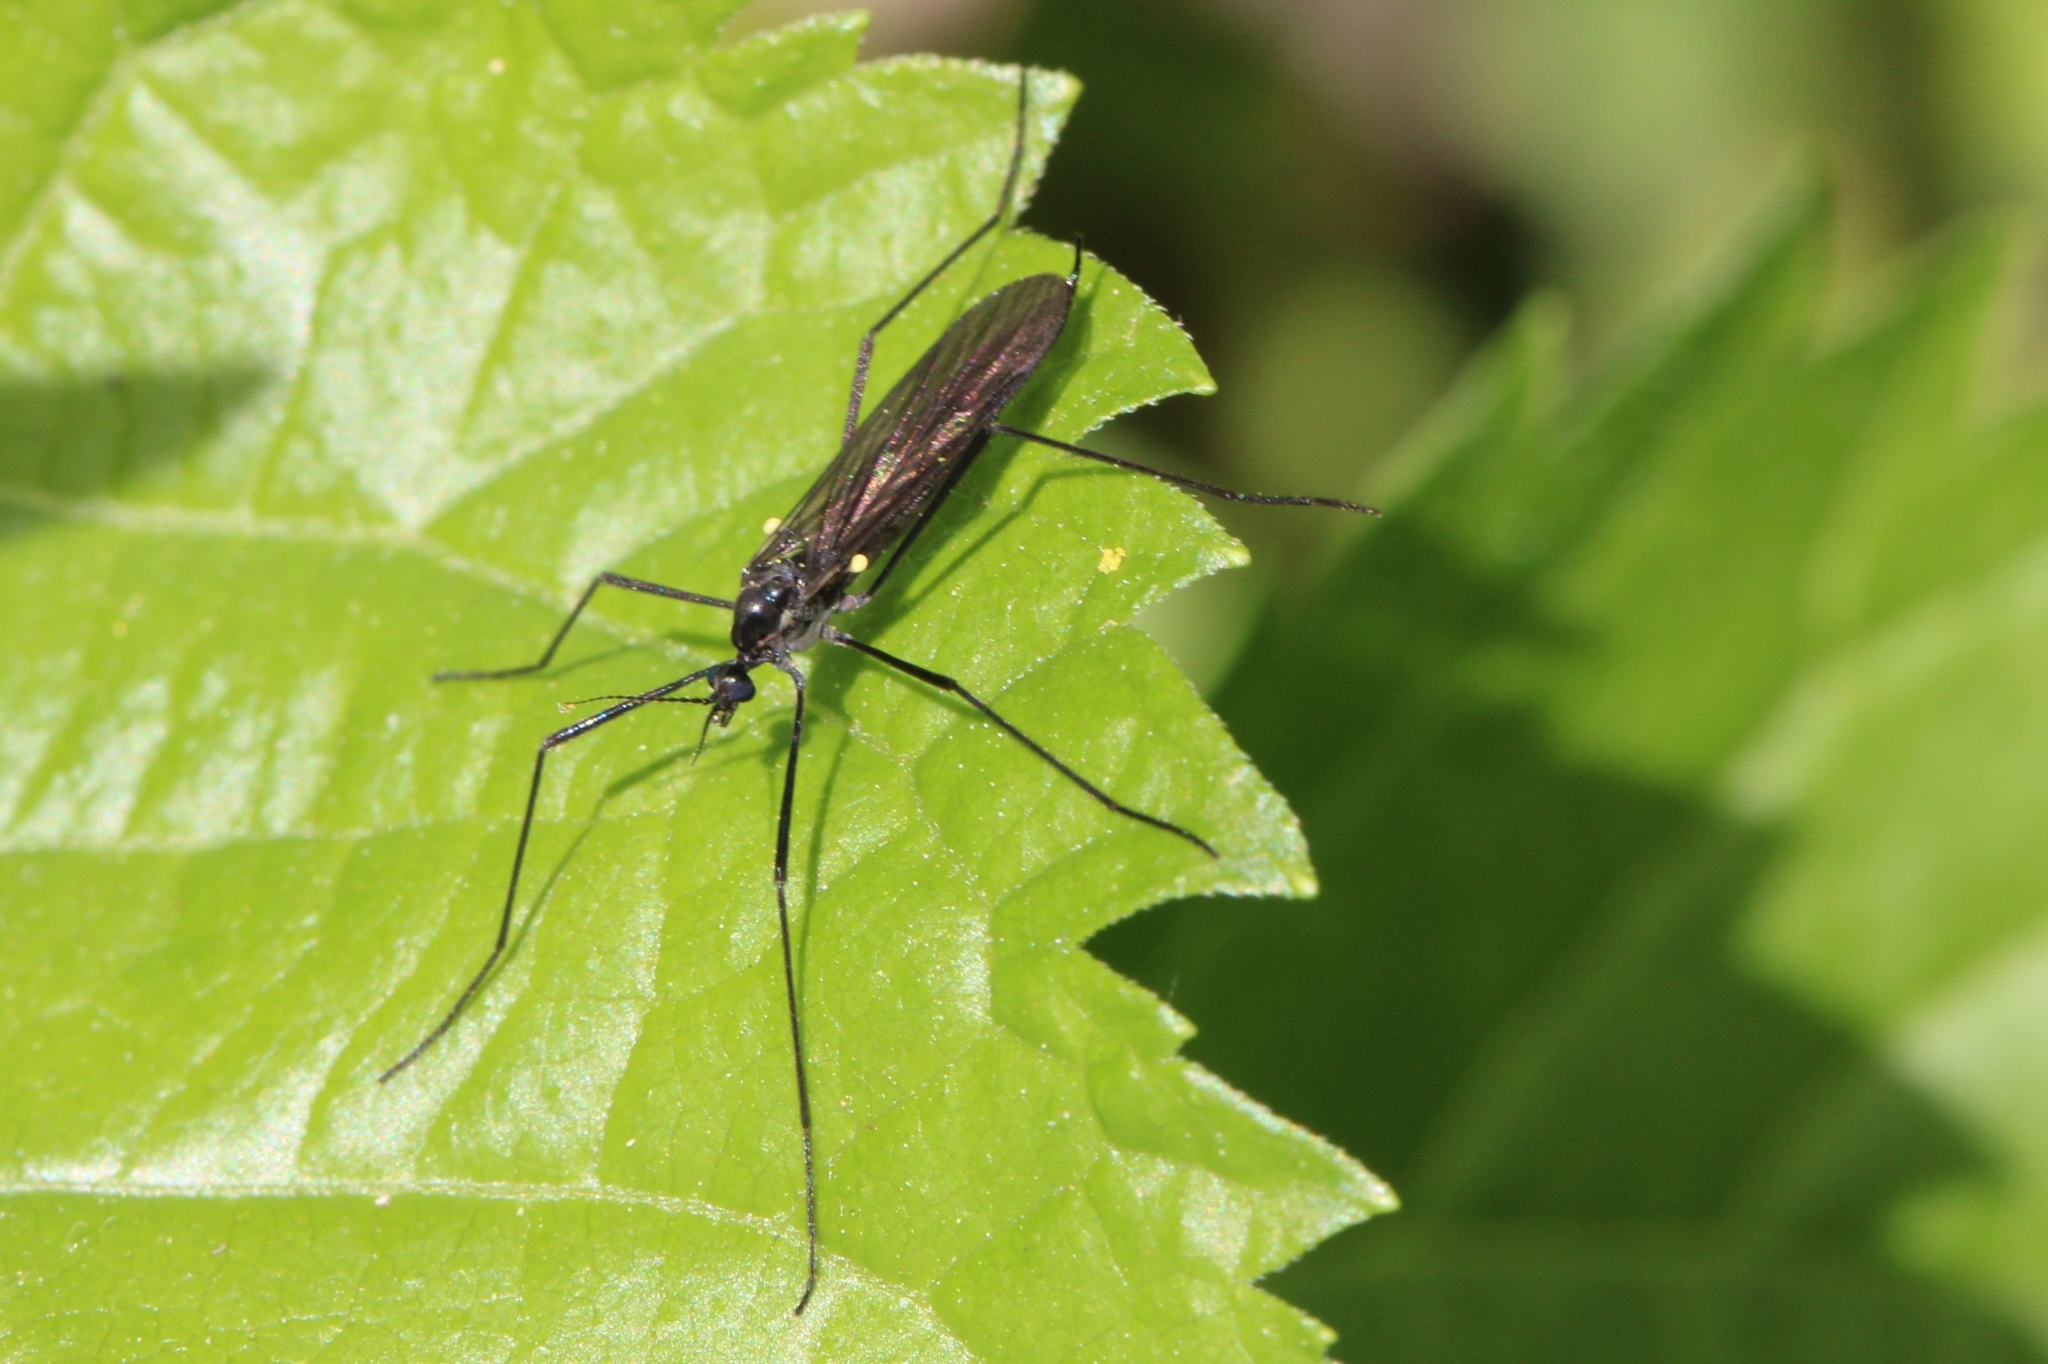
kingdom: Animalia
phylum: Arthropoda
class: Insecta
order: Diptera
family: Limoniidae
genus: Gnophomyia
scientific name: Gnophomyia tristissima
